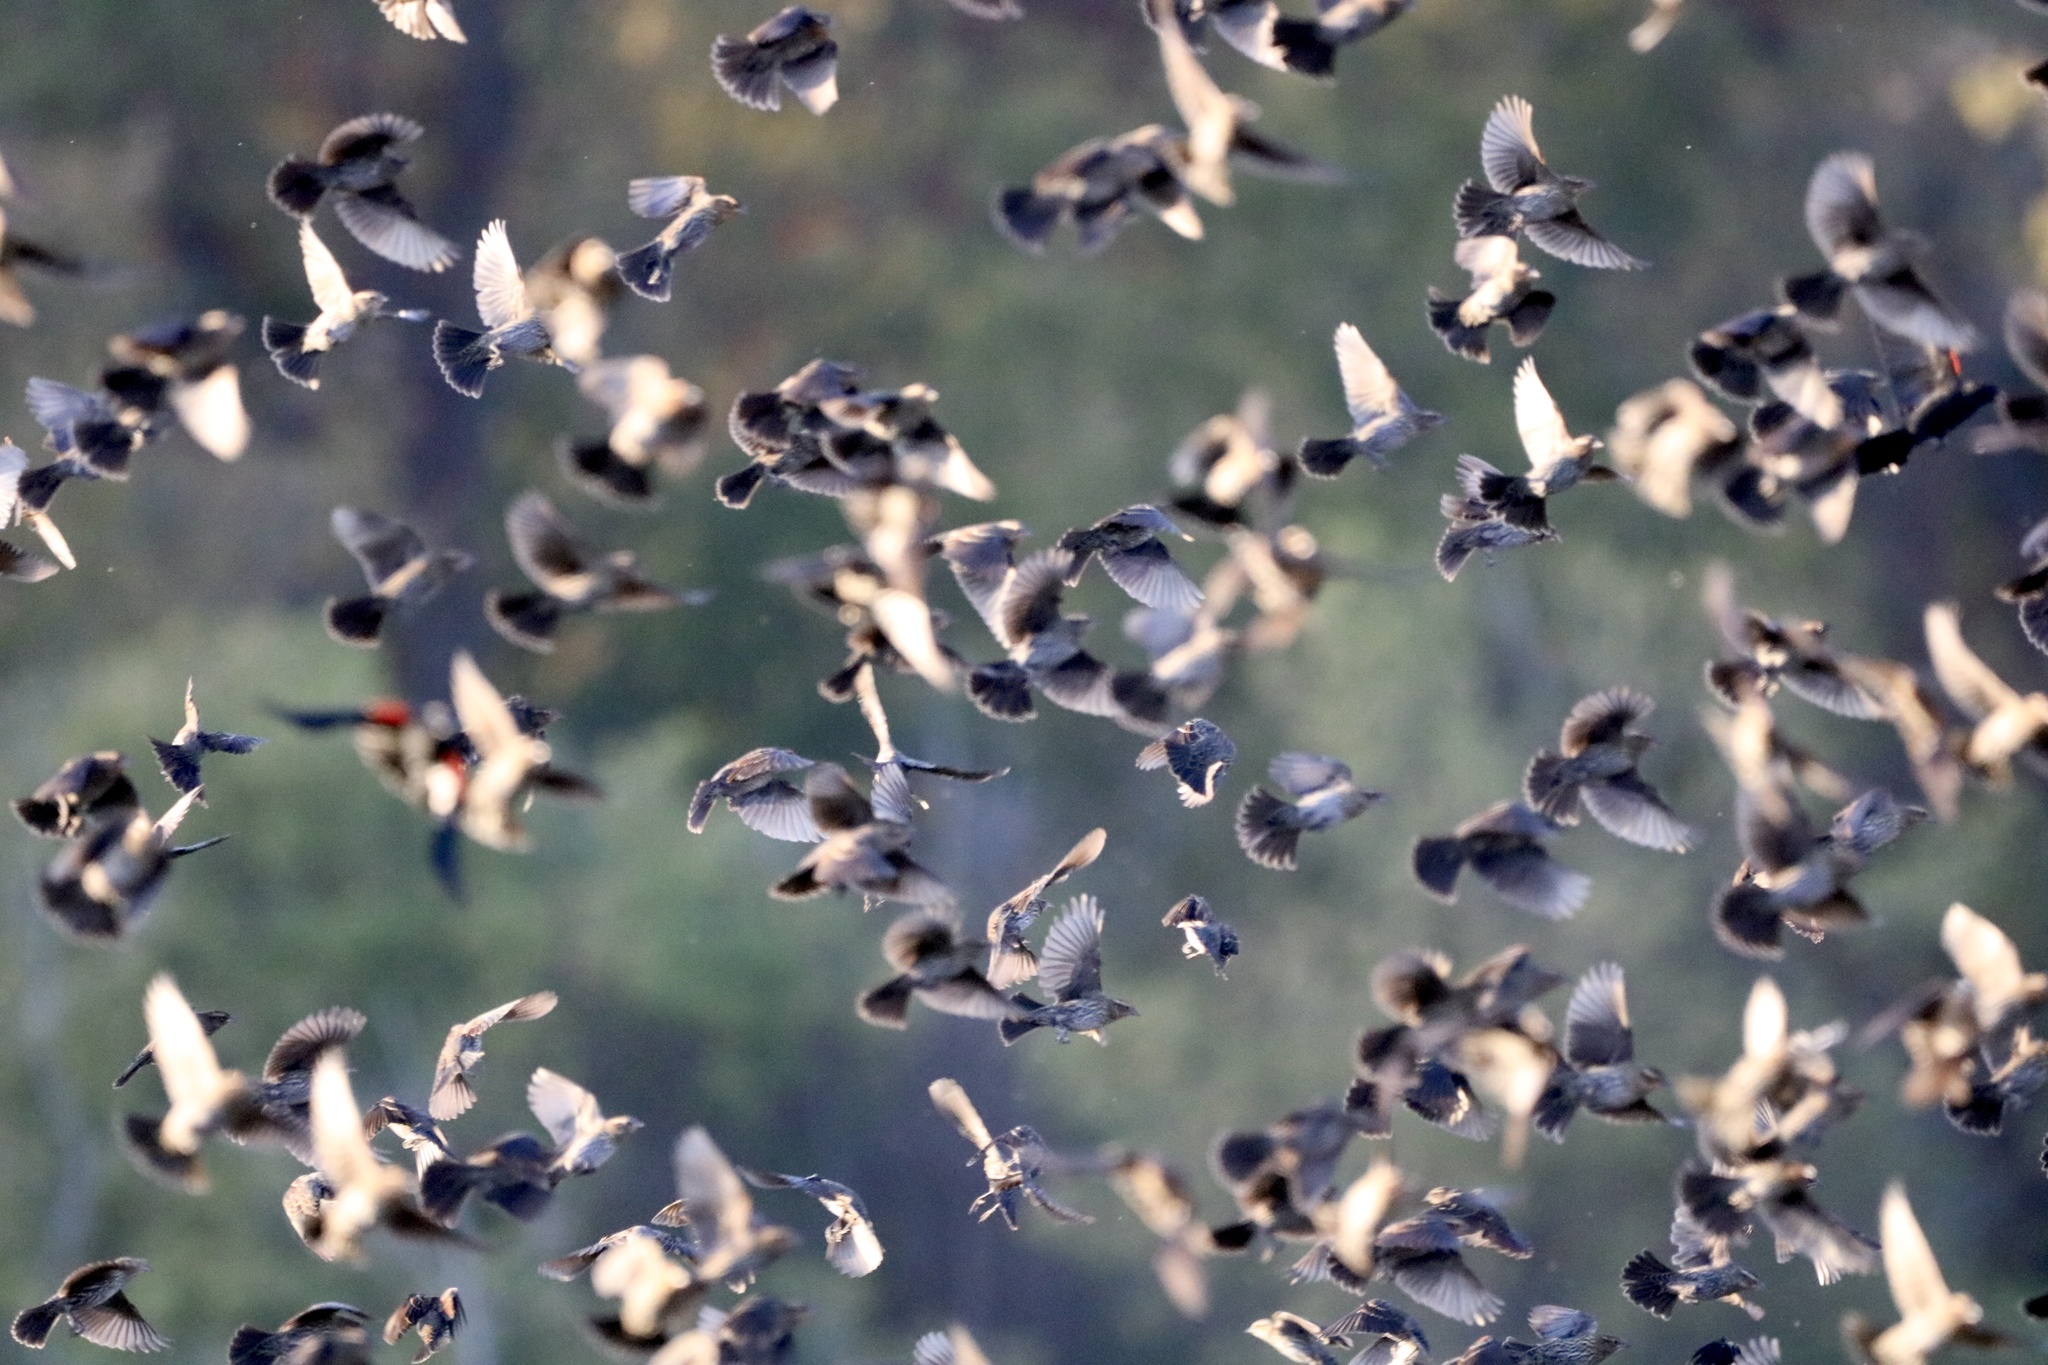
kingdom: Animalia
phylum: Chordata
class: Aves
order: Passeriformes
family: Icteridae
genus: Agelaius
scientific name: Agelaius phoeniceus
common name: Red-winged blackbird
